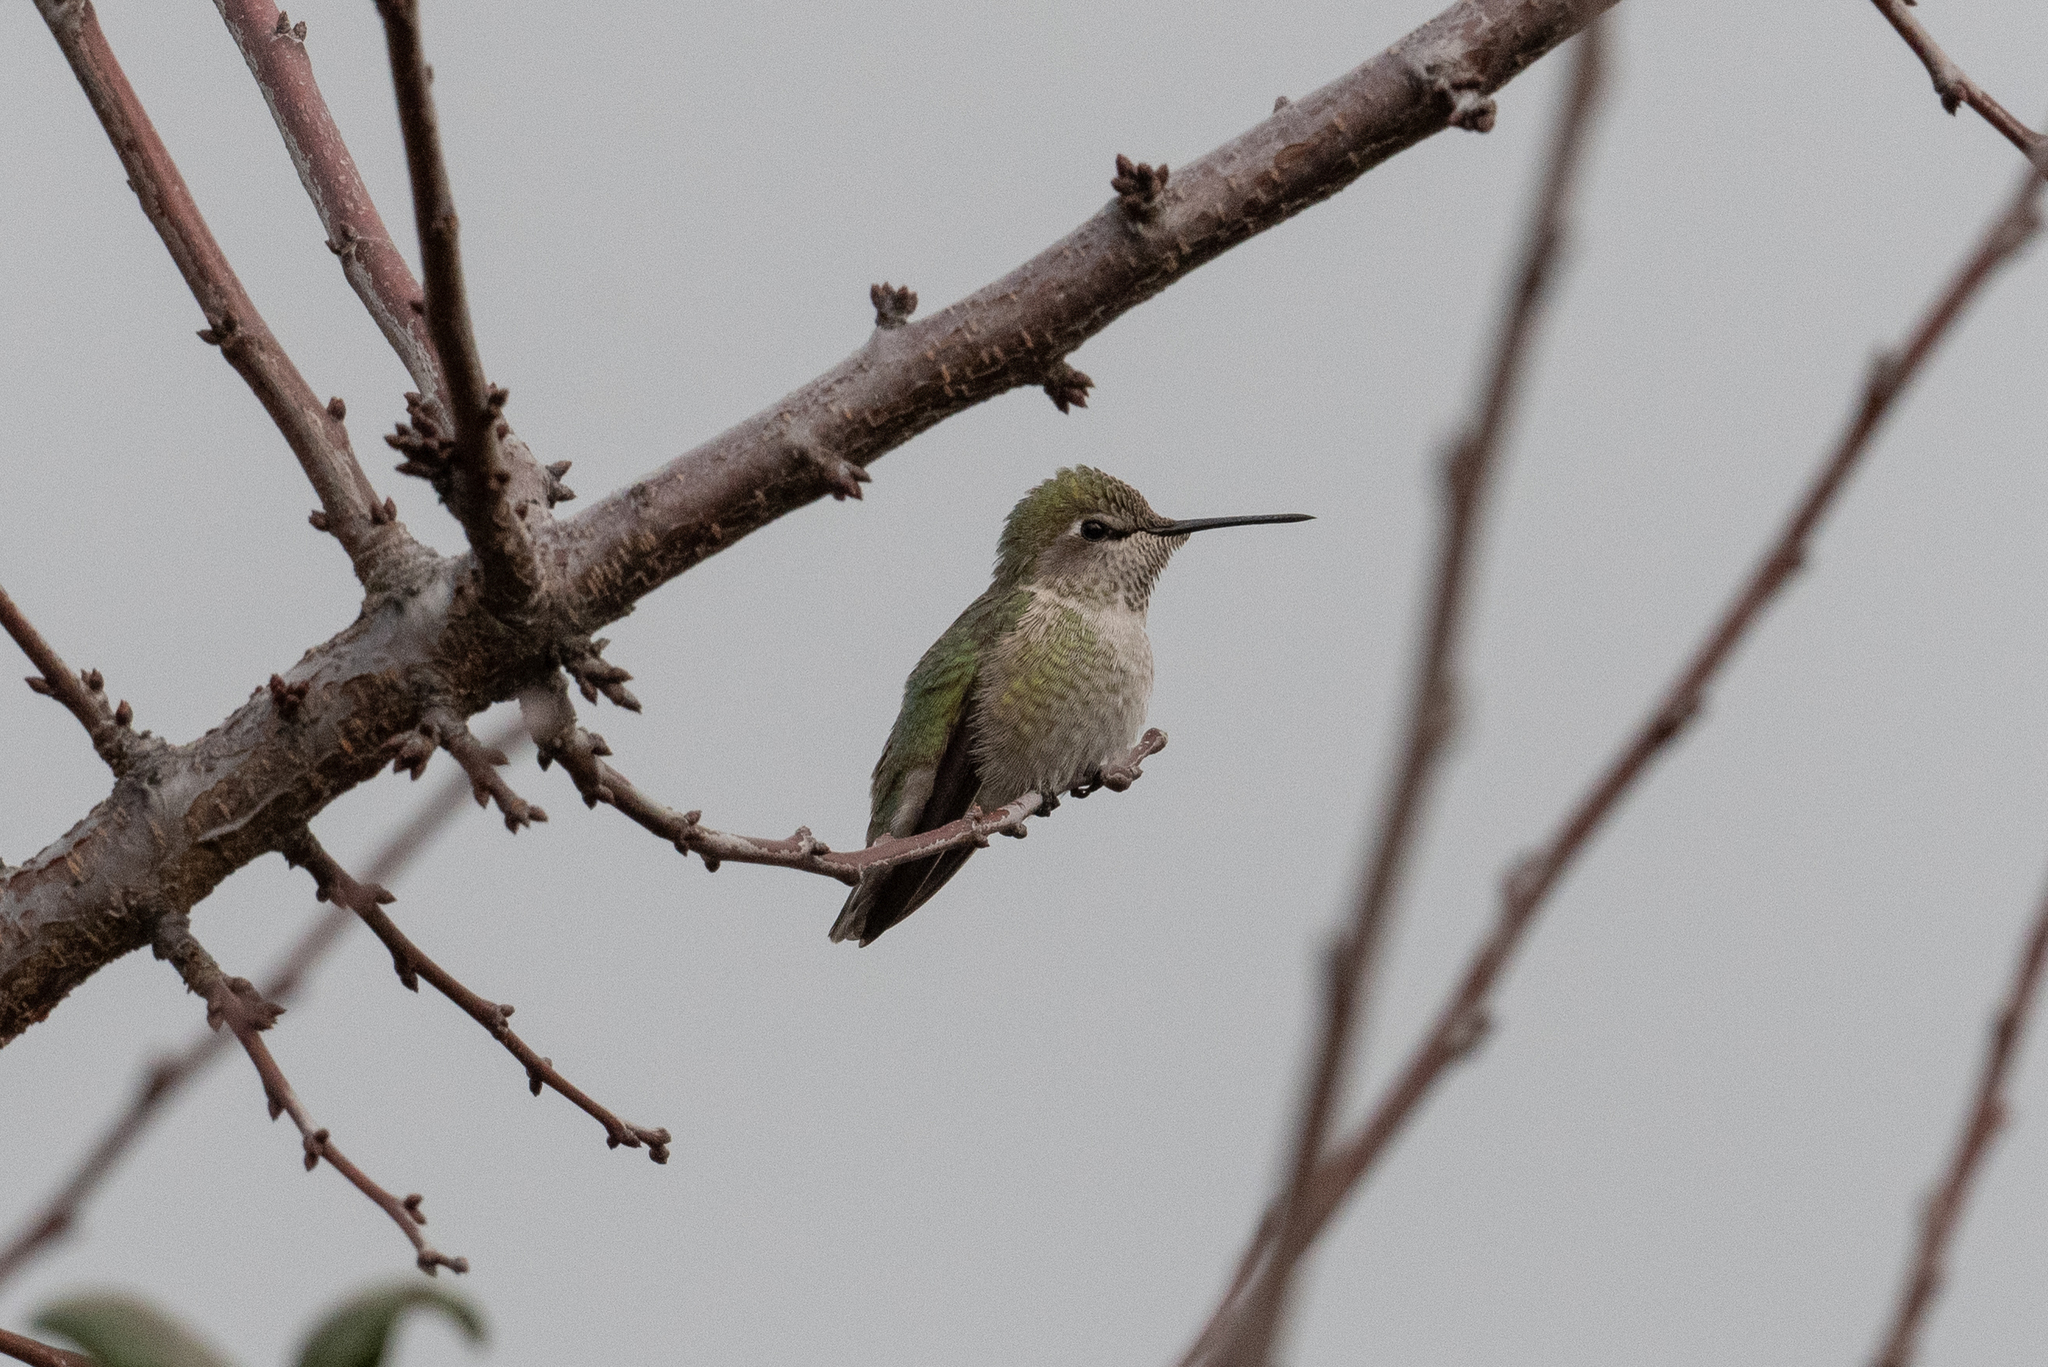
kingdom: Animalia
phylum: Chordata
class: Aves
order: Apodiformes
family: Trochilidae
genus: Calypte
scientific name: Calypte anna
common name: Anna's hummingbird
